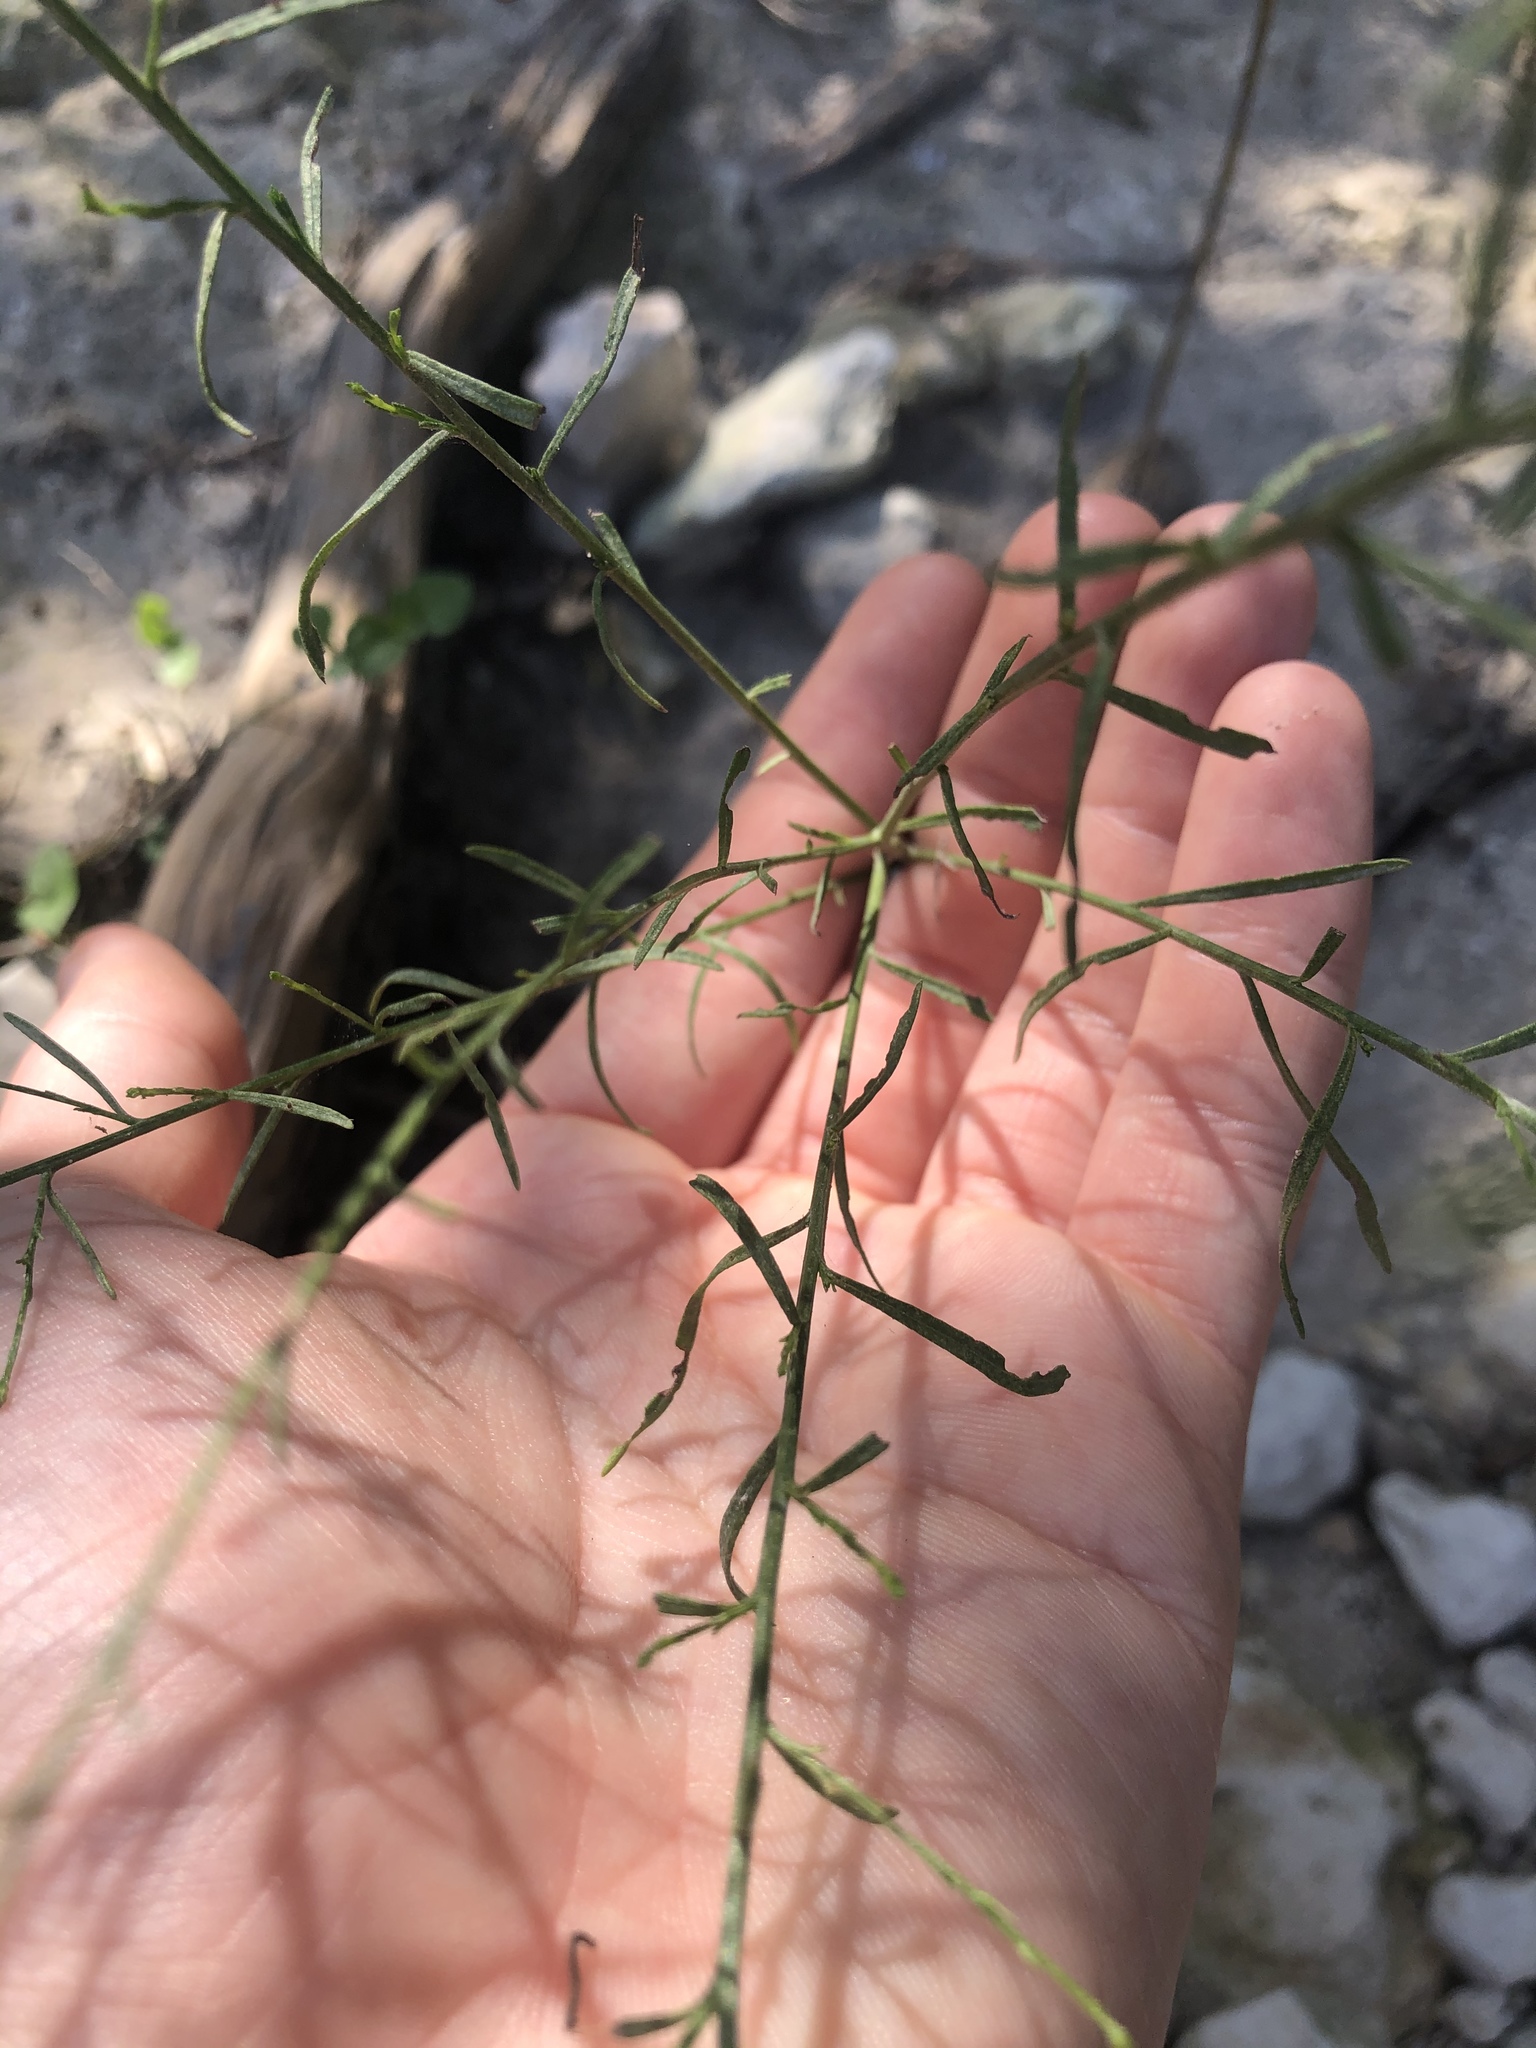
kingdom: Plantae
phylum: Tracheophyta
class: Magnoliopsida
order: Asterales
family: Asteraceae
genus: Gutierrezia
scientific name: Gutierrezia texana
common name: Texas snakeweed
